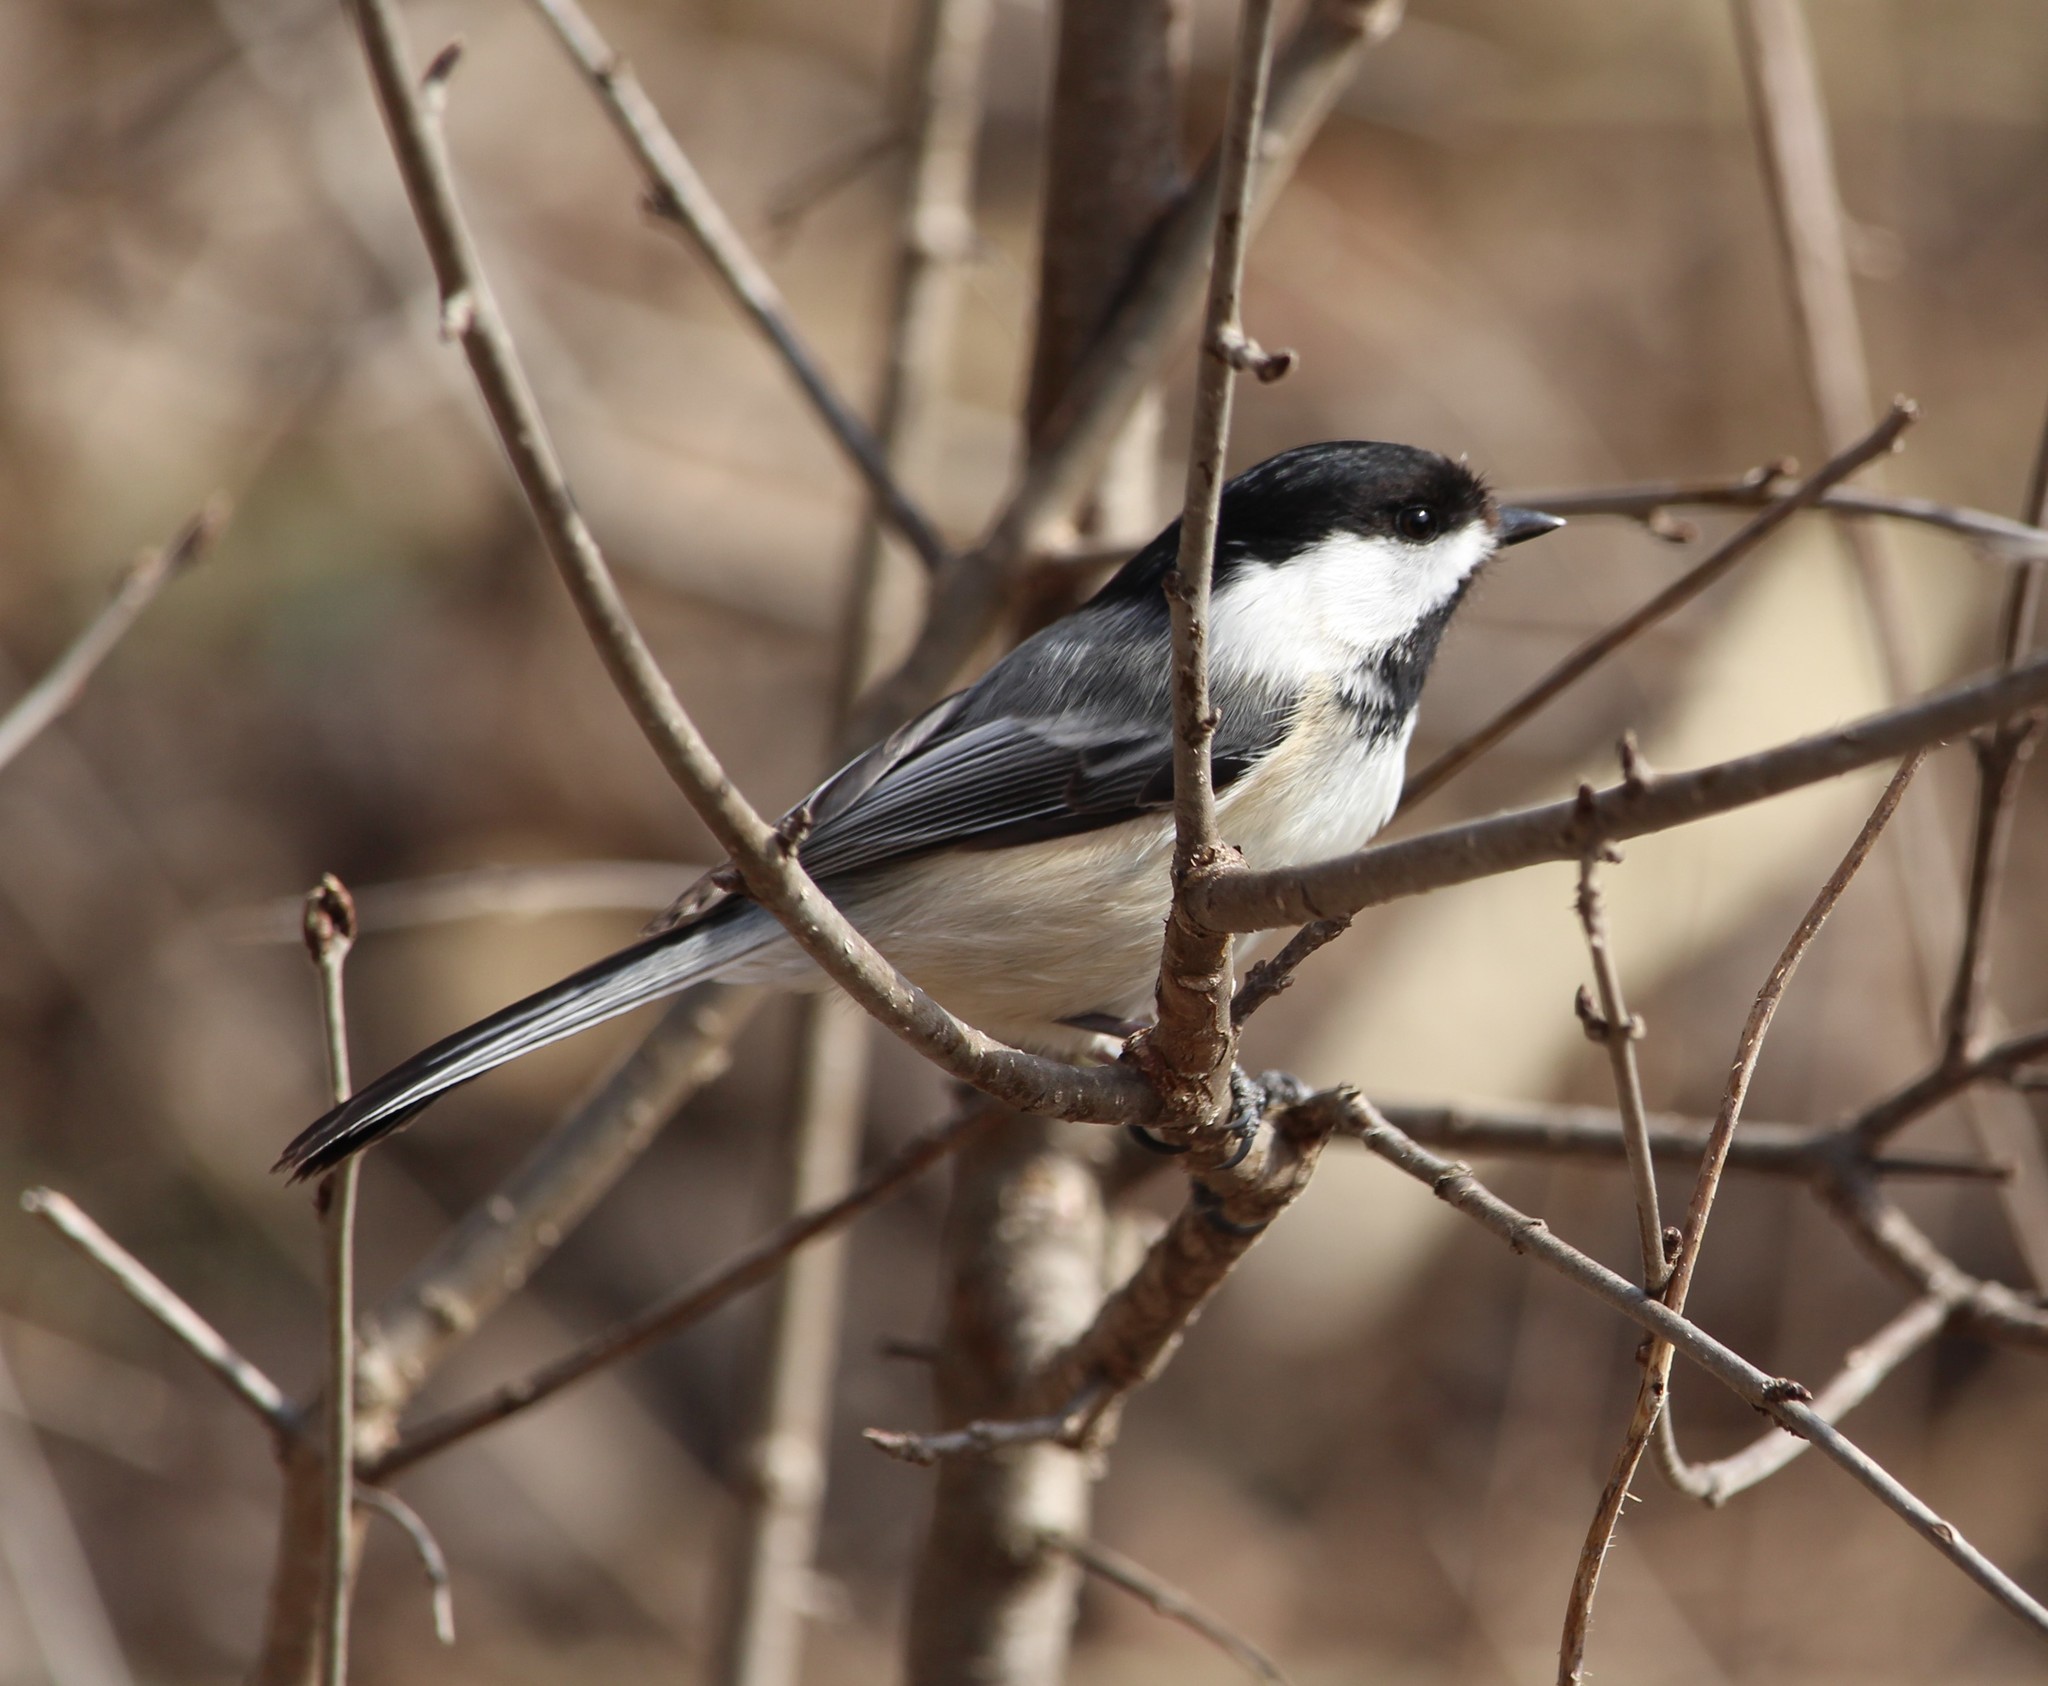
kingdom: Animalia
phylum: Chordata
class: Aves
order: Passeriformes
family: Paridae
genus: Poecile
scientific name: Poecile atricapillus
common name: Black-capped chickadee
